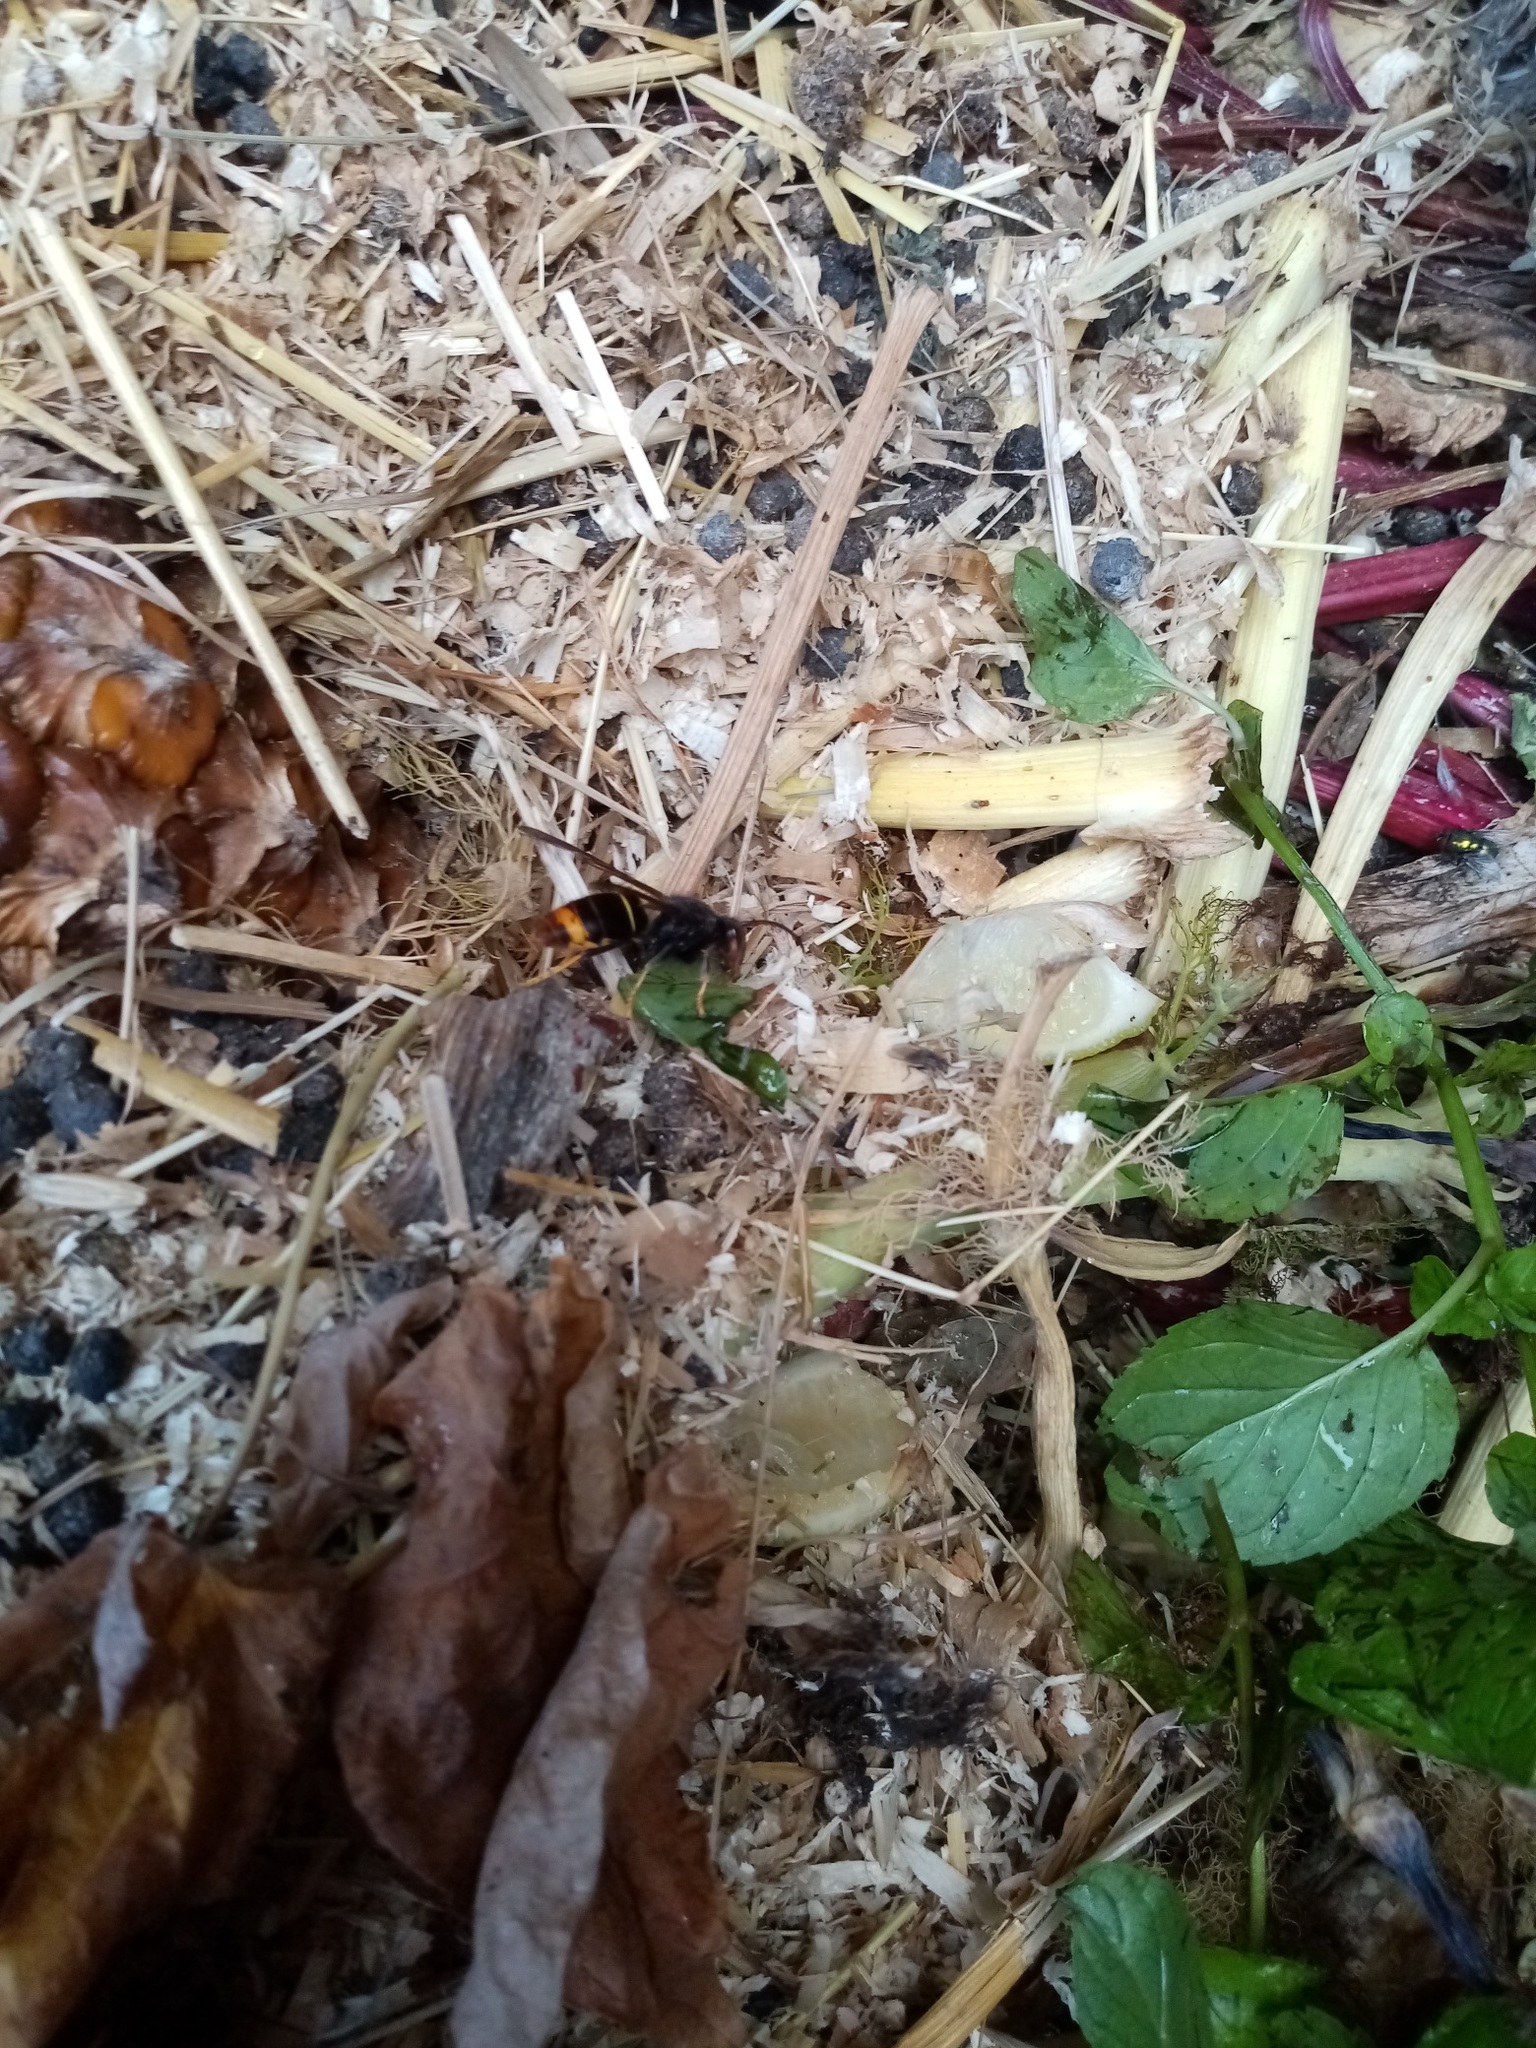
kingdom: Animalia
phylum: Arthropoda
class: Insecta
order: Hymenoptera
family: Vespidae
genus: Vespa
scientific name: Vespa velutina
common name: Asian hornet
